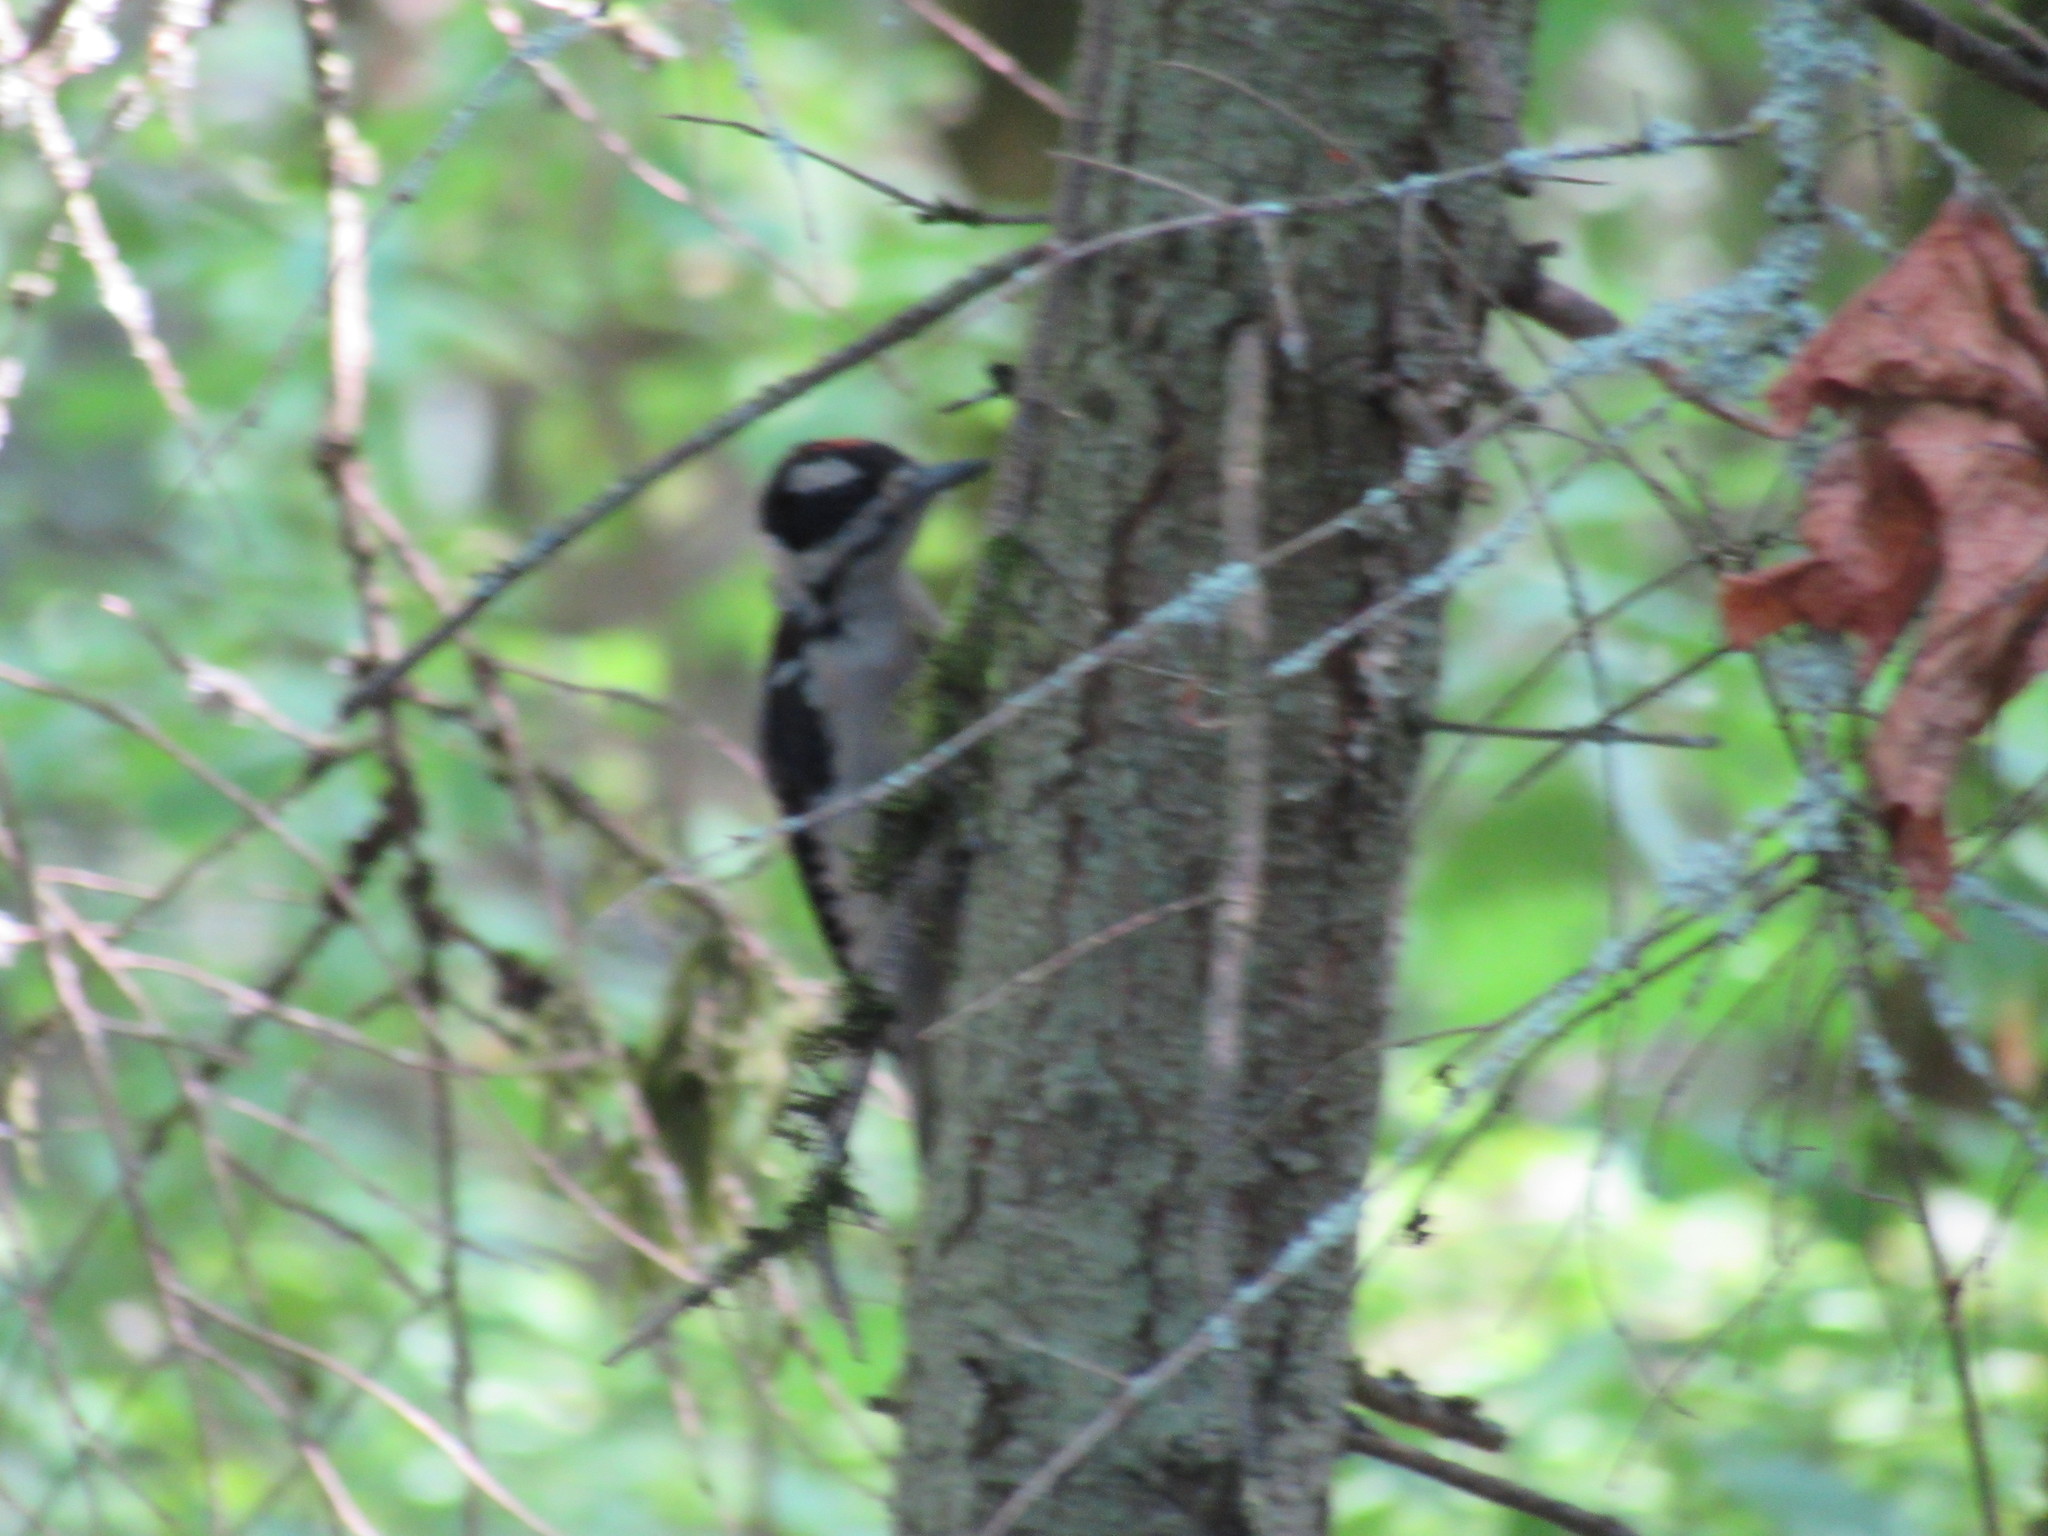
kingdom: Animalia
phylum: Chordata
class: Aves
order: Piciformes
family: Picidae
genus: Leuconotopicus
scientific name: Leuconotopicus villosus
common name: Hairy woodpecker
